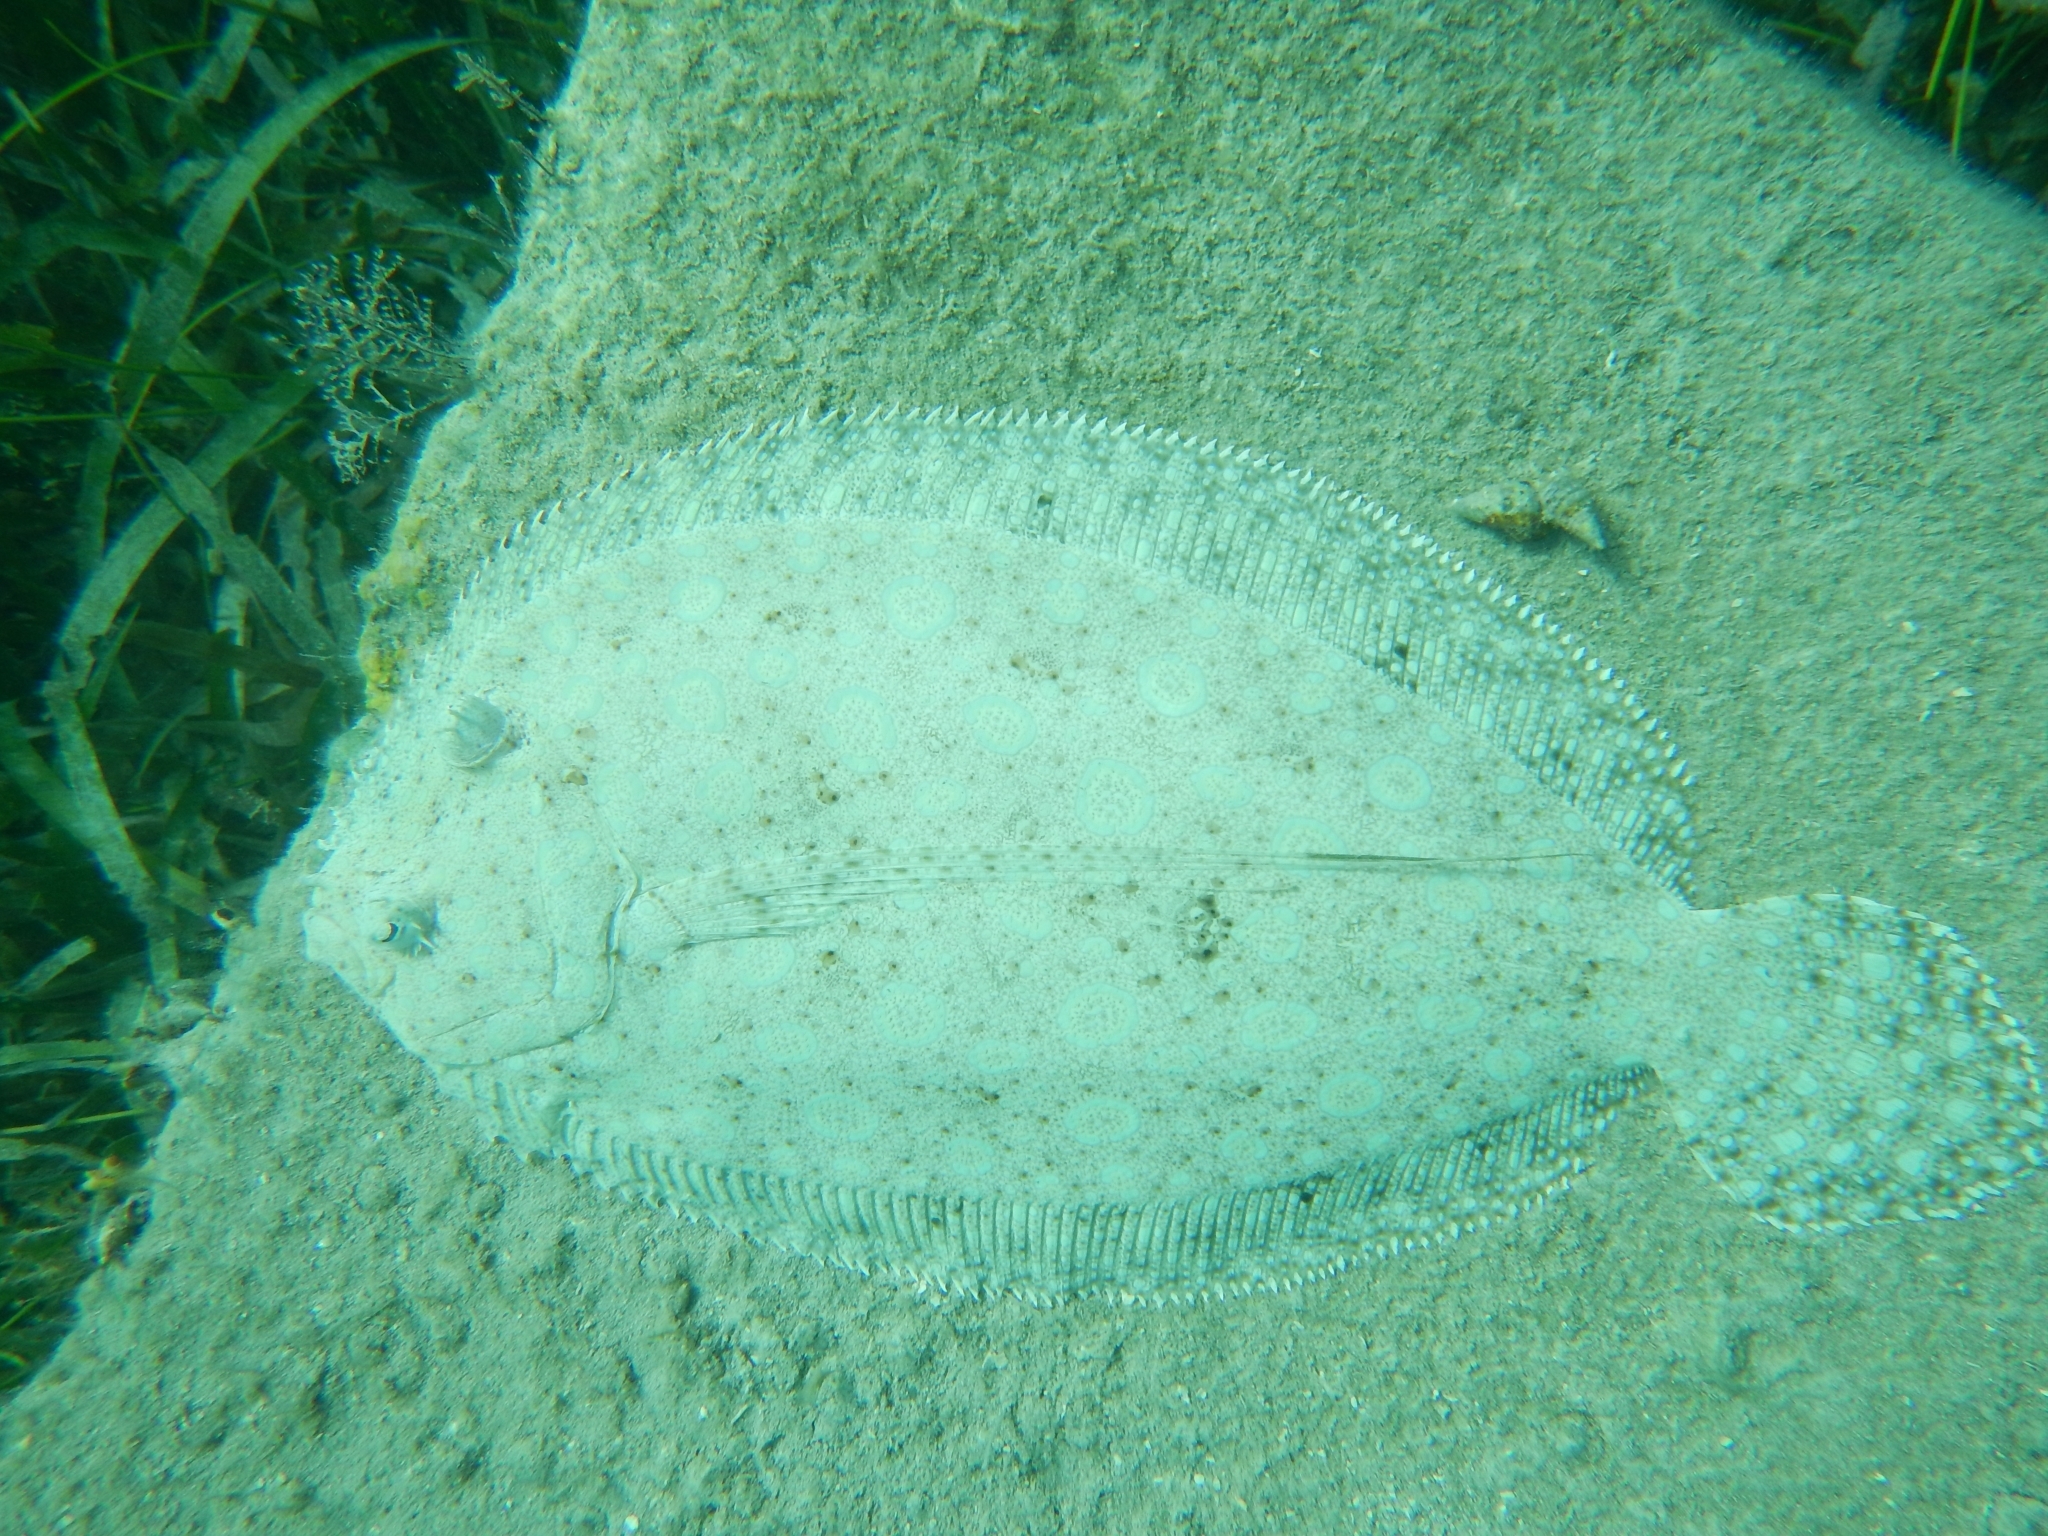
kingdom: Animalia
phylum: Chordata
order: Pleuronectiformes
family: Bothidae
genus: Bothus
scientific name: Bothus lunatus
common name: Peacock flounder
